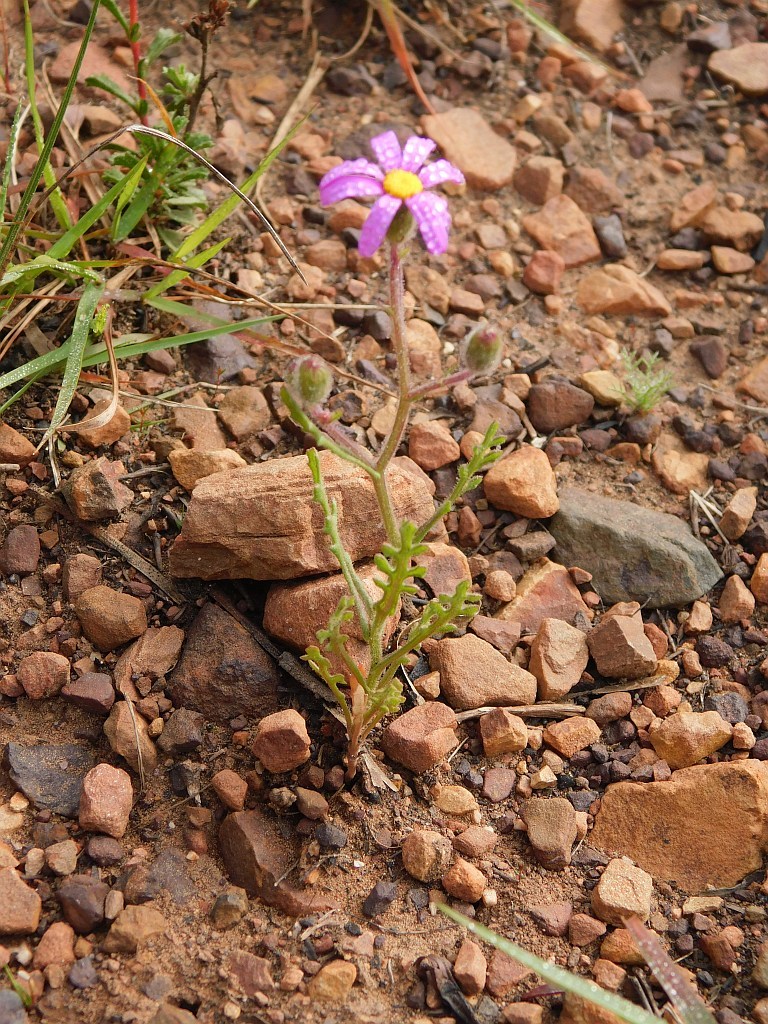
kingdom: Plantae
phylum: Tracheophyta
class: Magnoliopsida
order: Asterales
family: Asteraceae
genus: Senecio
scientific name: Senecio arenarius
